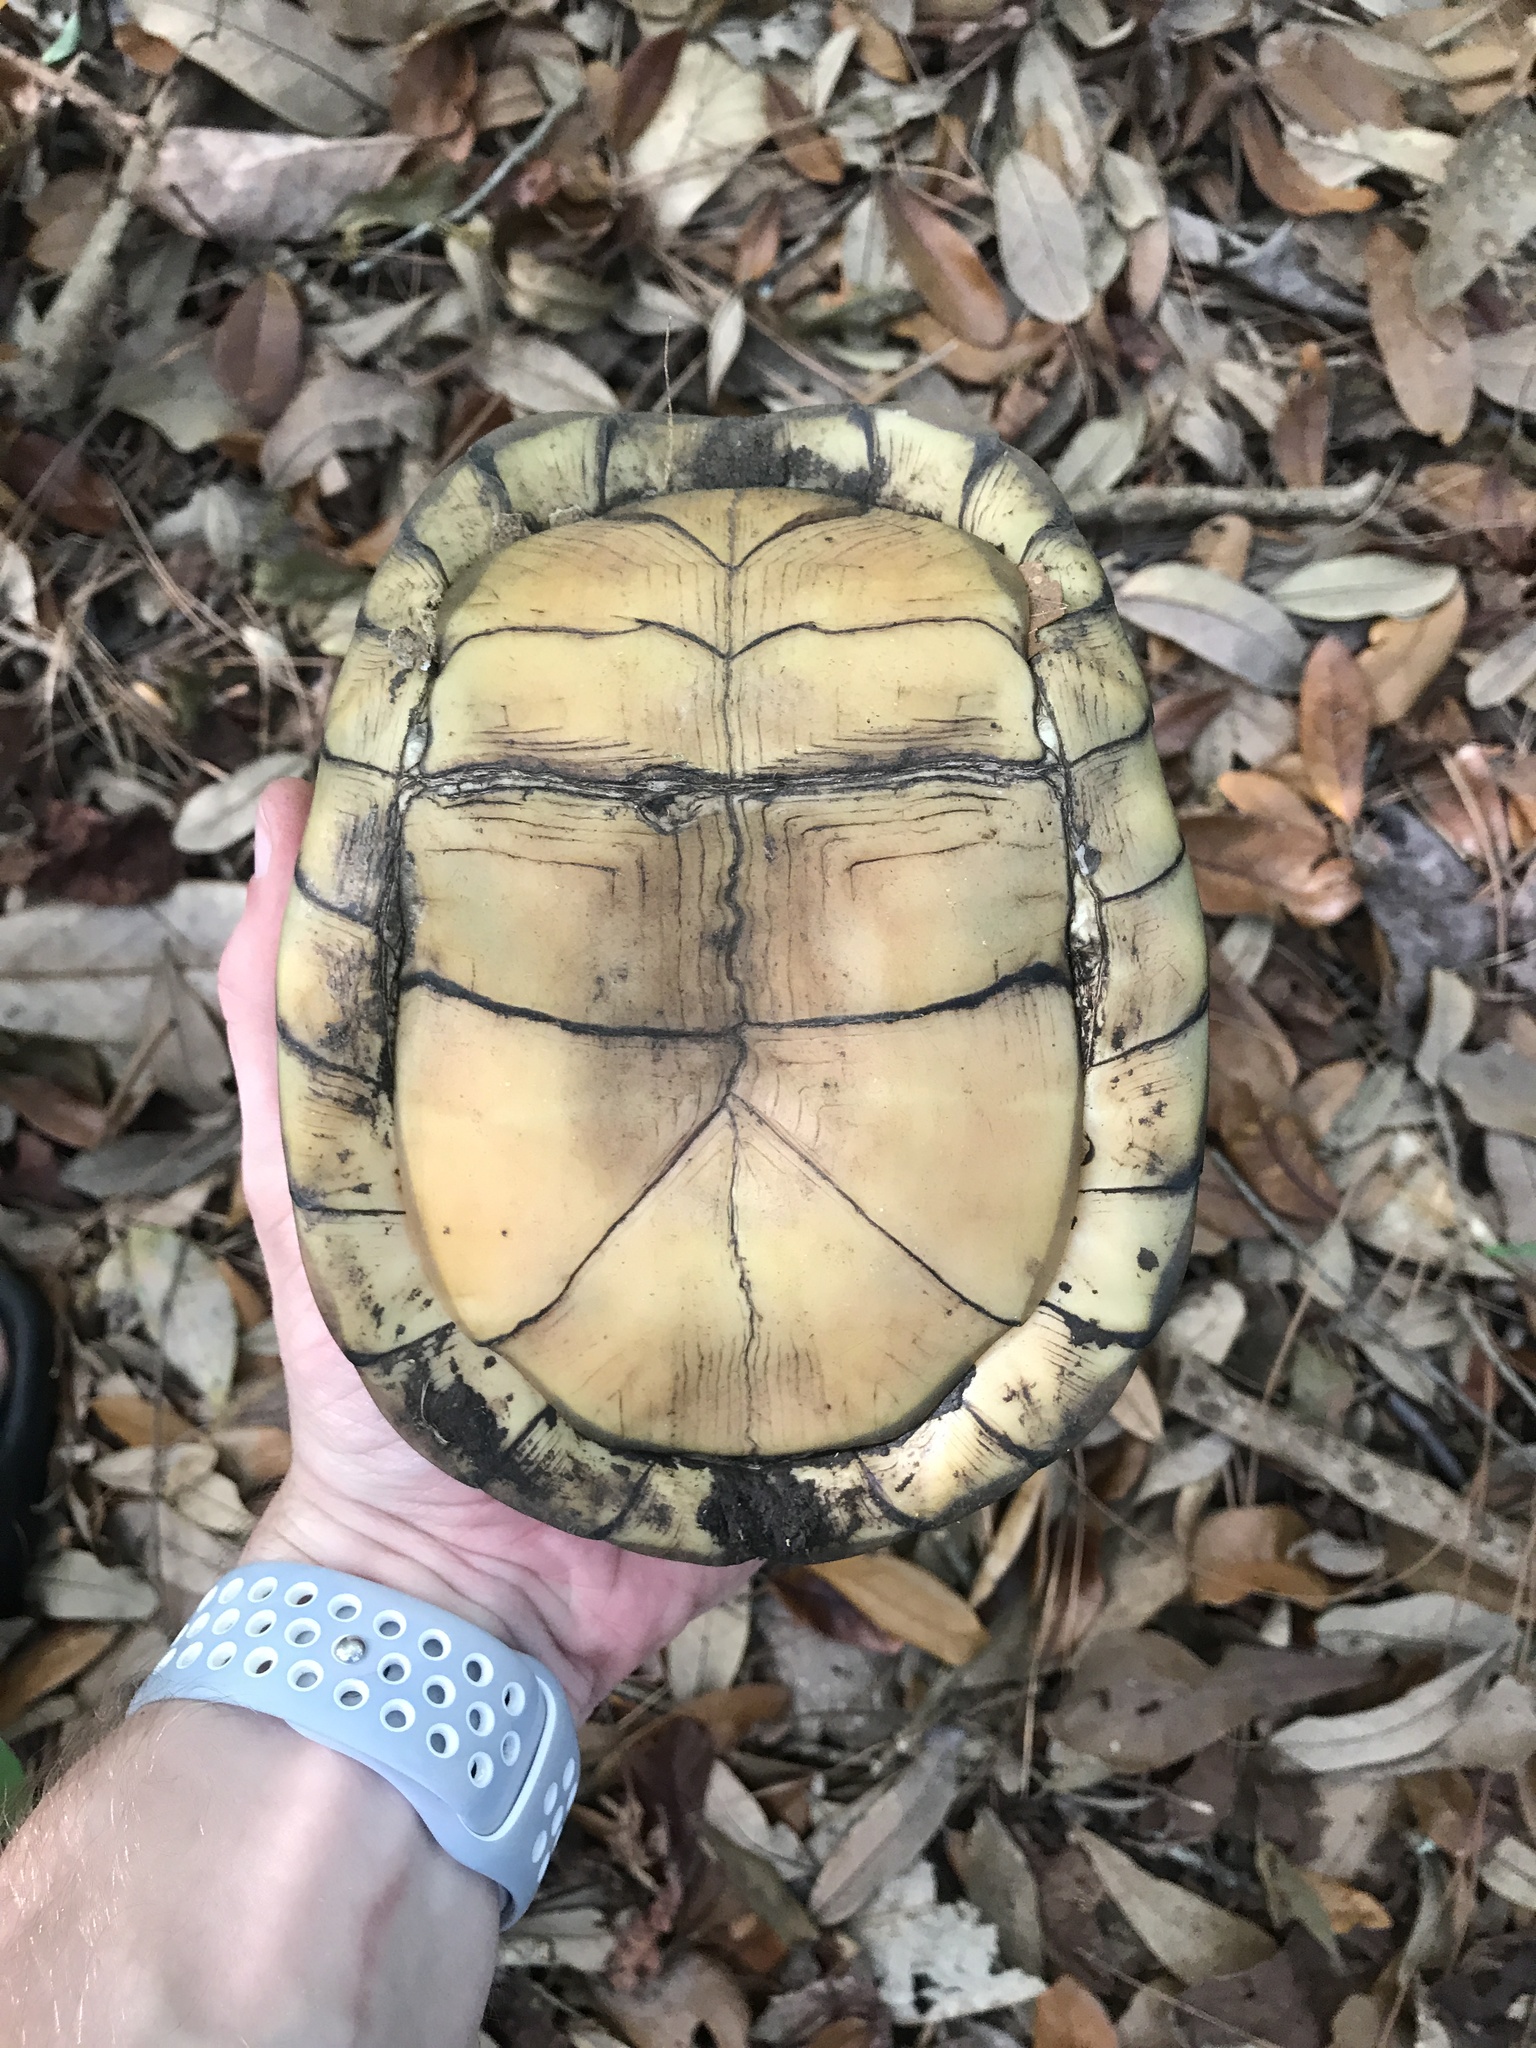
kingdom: Animalia
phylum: Chordata
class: Testudines
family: Emydidae
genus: Terrapene
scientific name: Terrapene carolina
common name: Common box turtle
